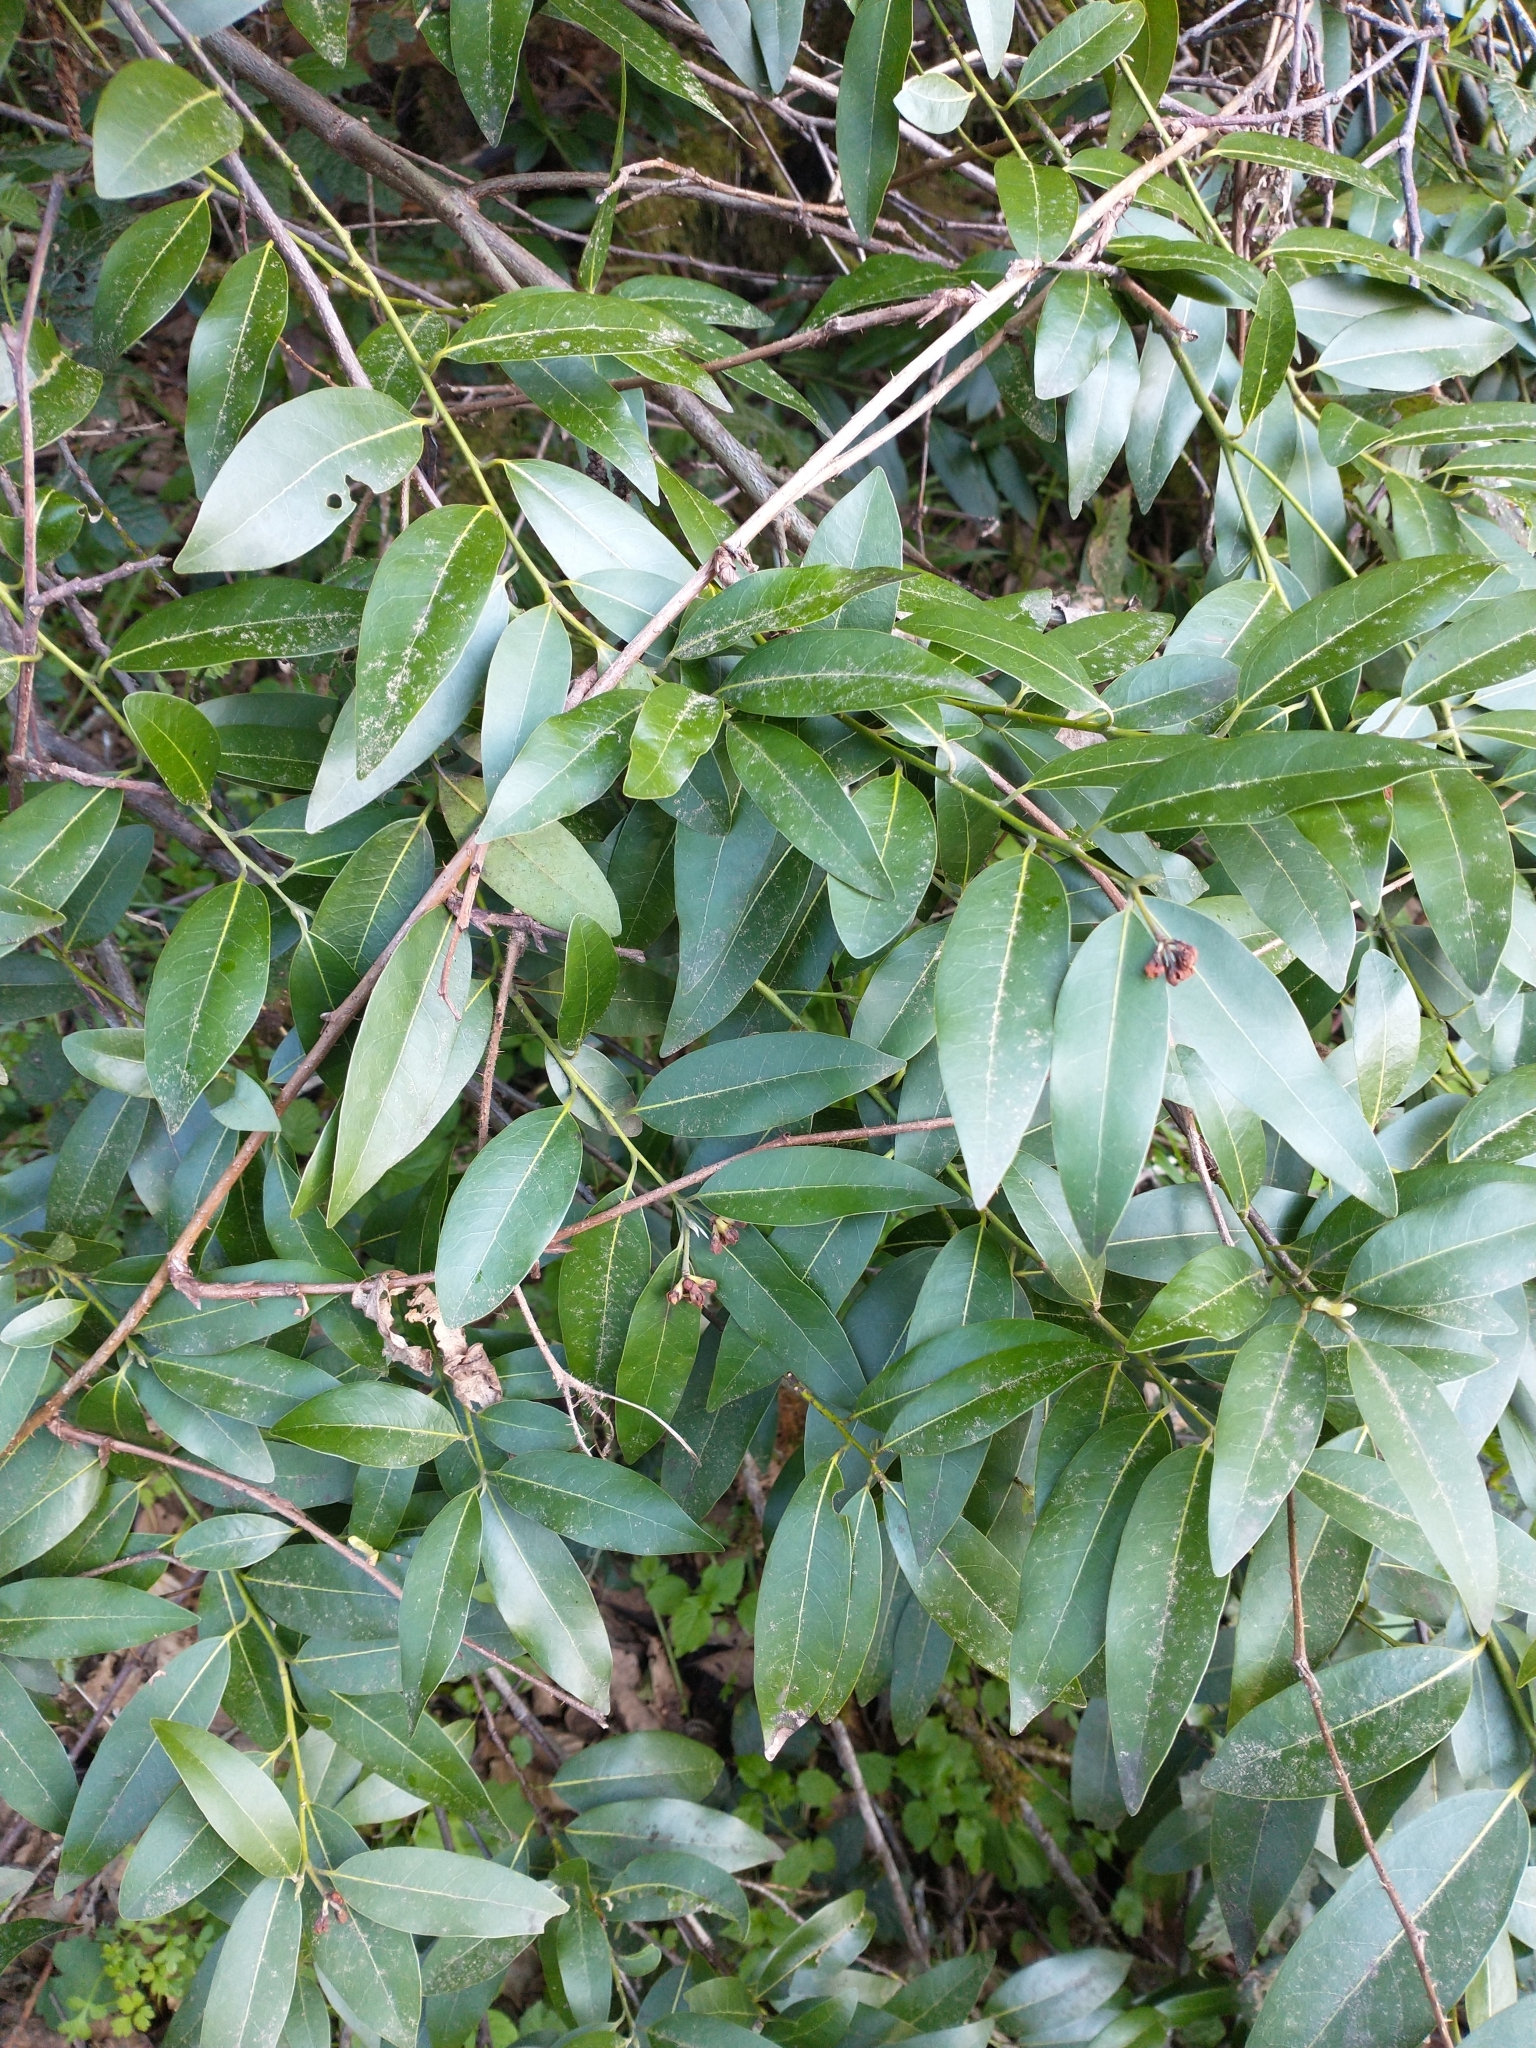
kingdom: Plantae
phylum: Tracheophyta
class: Magnoliopsida
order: Laurales
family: Lauraceae
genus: Umbellularia
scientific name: Umbellularia californica
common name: California bay
